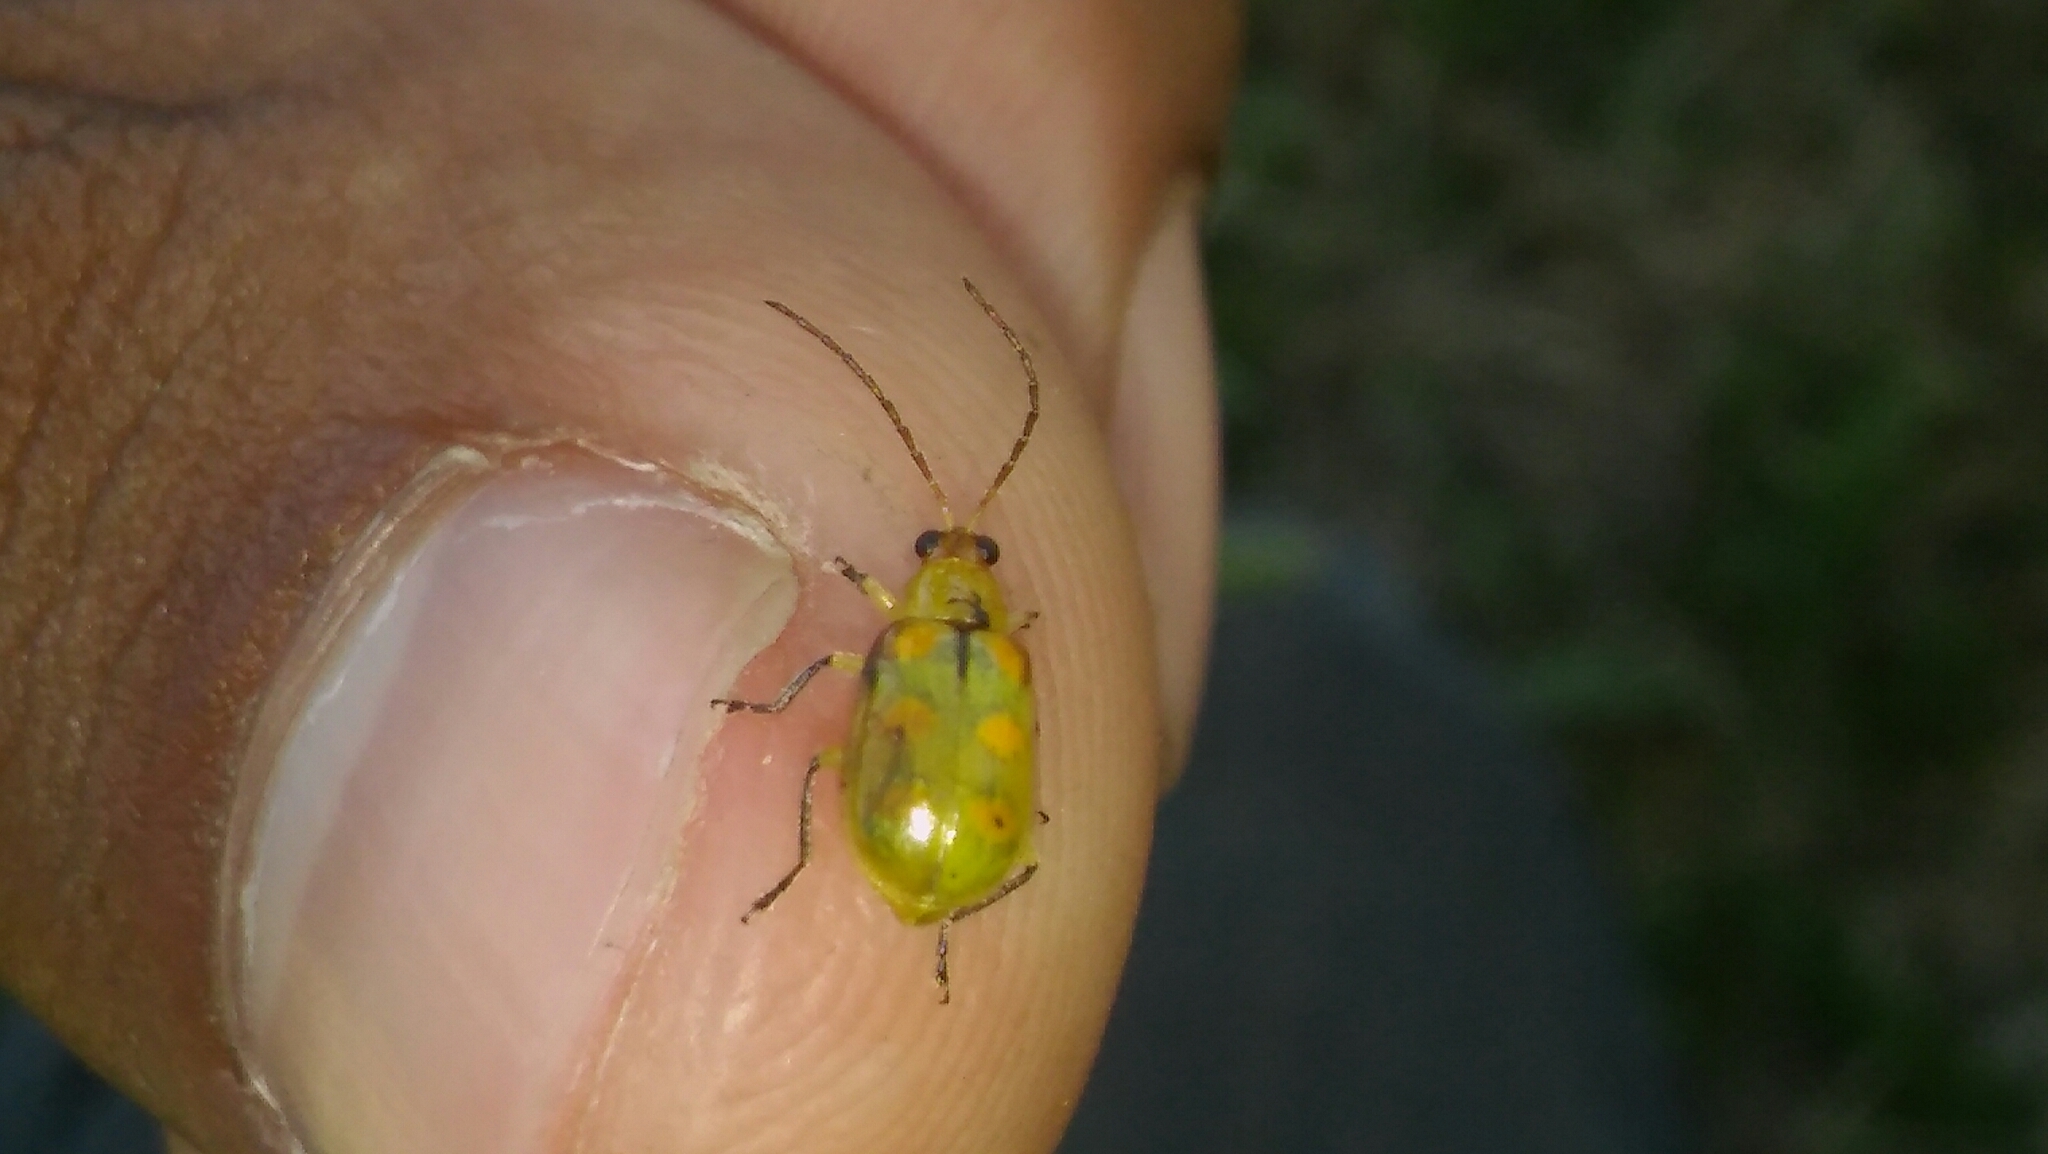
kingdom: Animalia
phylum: Arthropoda
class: Insecta
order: Coleoptera
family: Chrysomelidae
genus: Diabrotica
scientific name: Diabrotica speciosa
